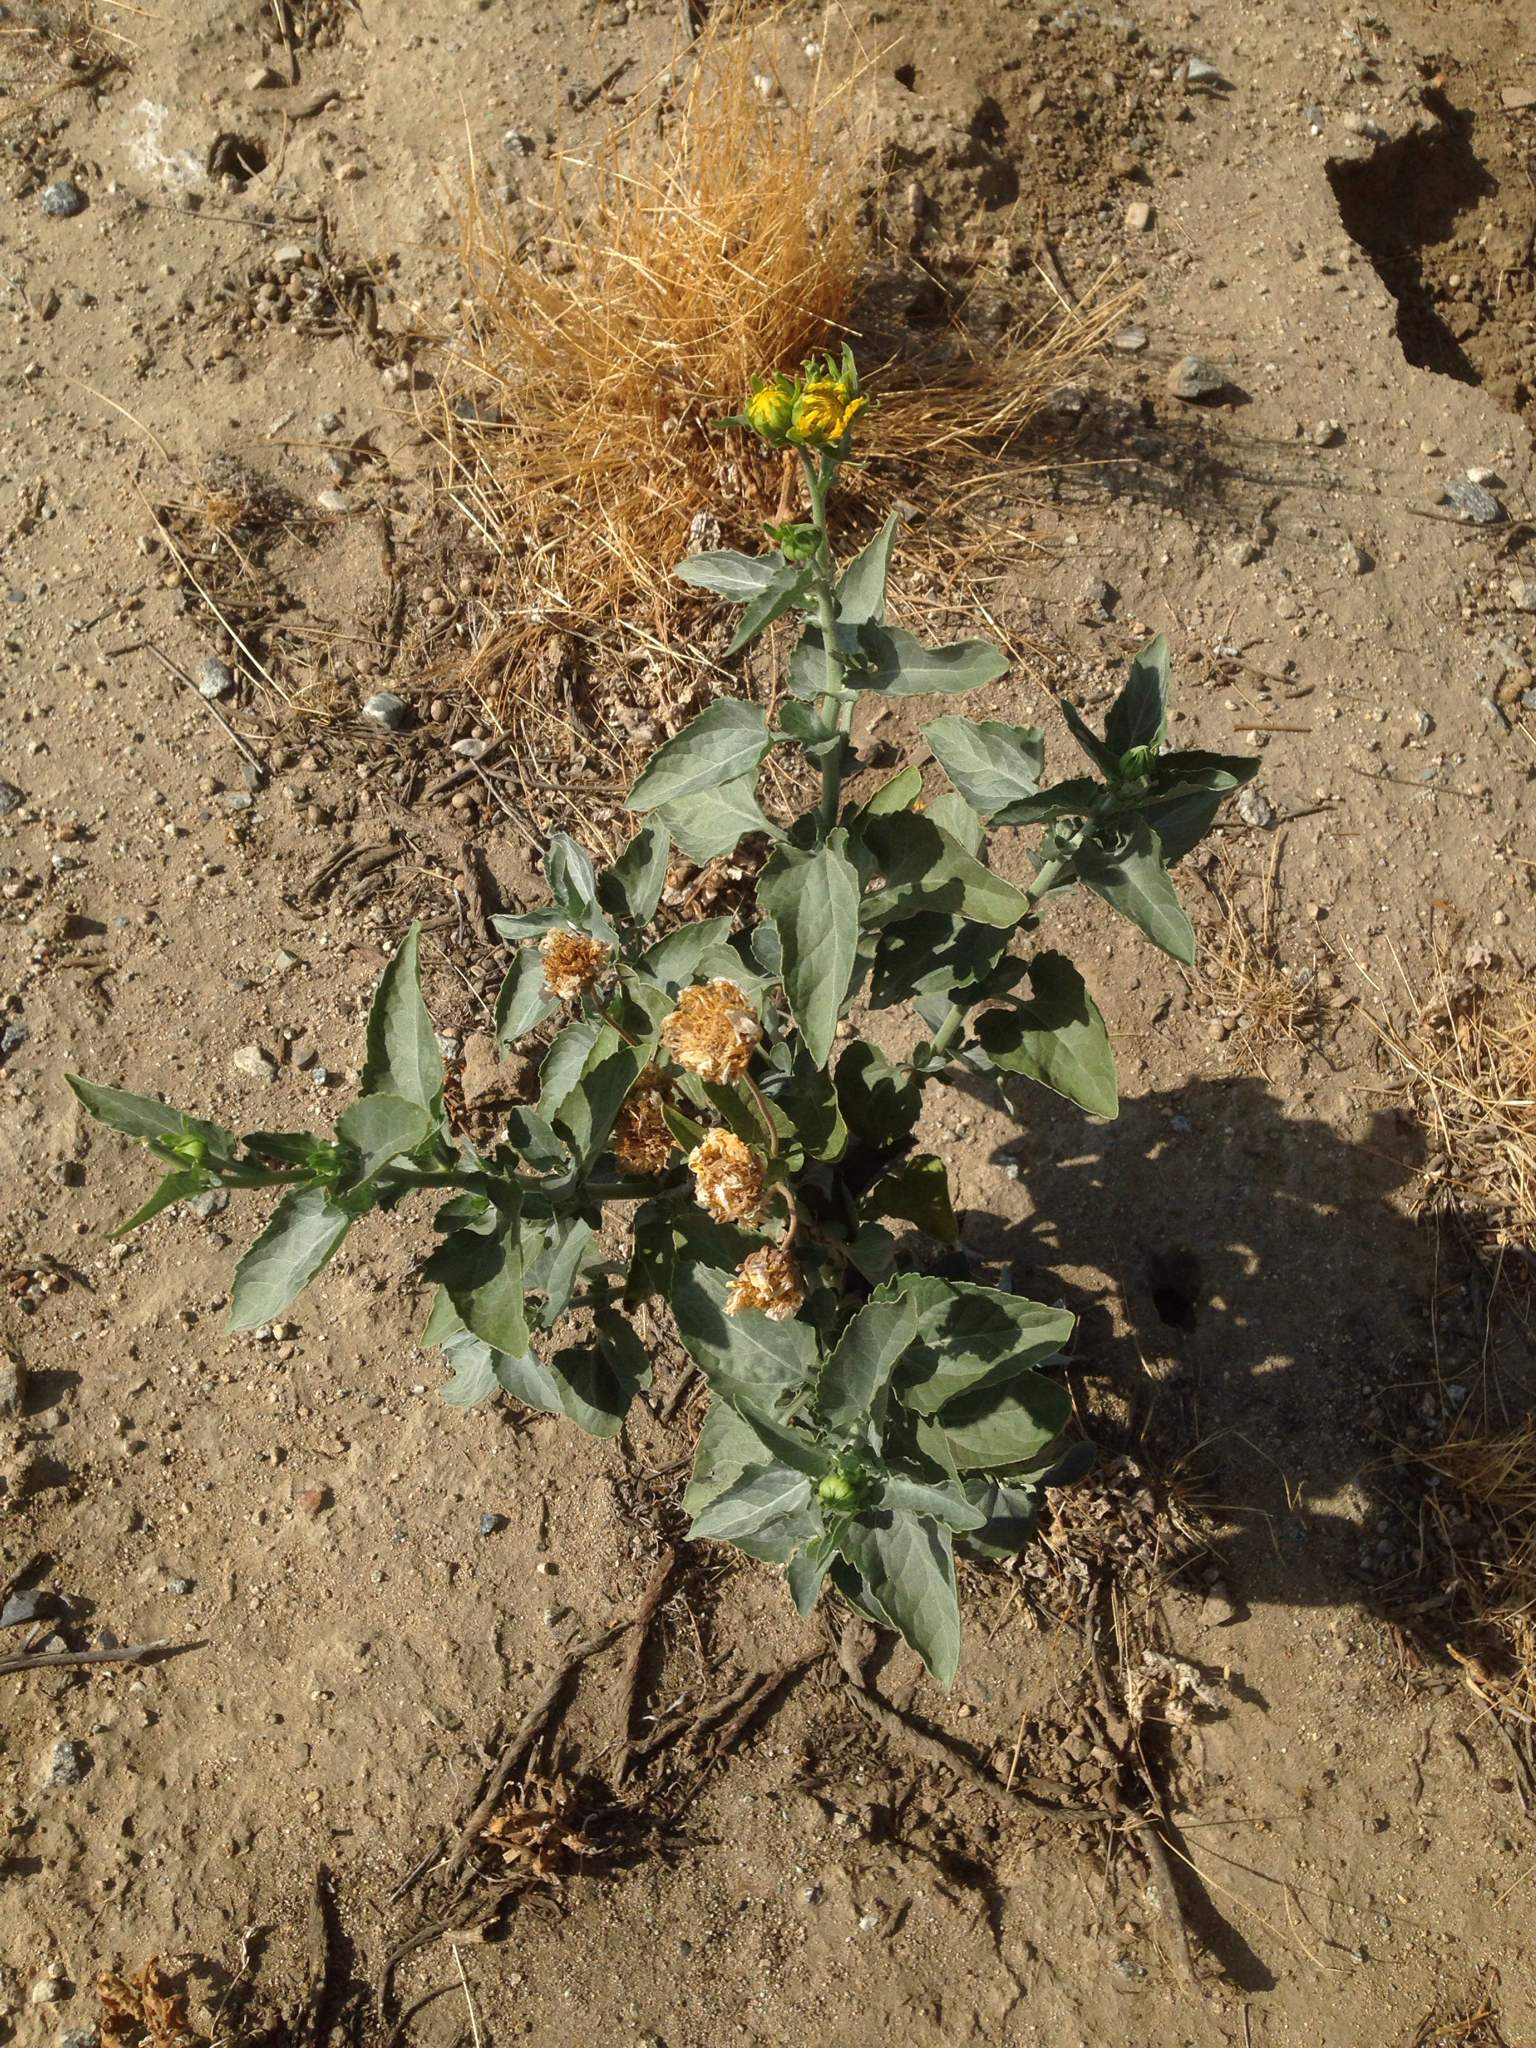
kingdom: Plantae
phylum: Tracheophyta
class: Magnoliopsida
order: Asterales
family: Asteraceae
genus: Verbesina
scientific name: Verbesina encelioides
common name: Golden crownbeard
